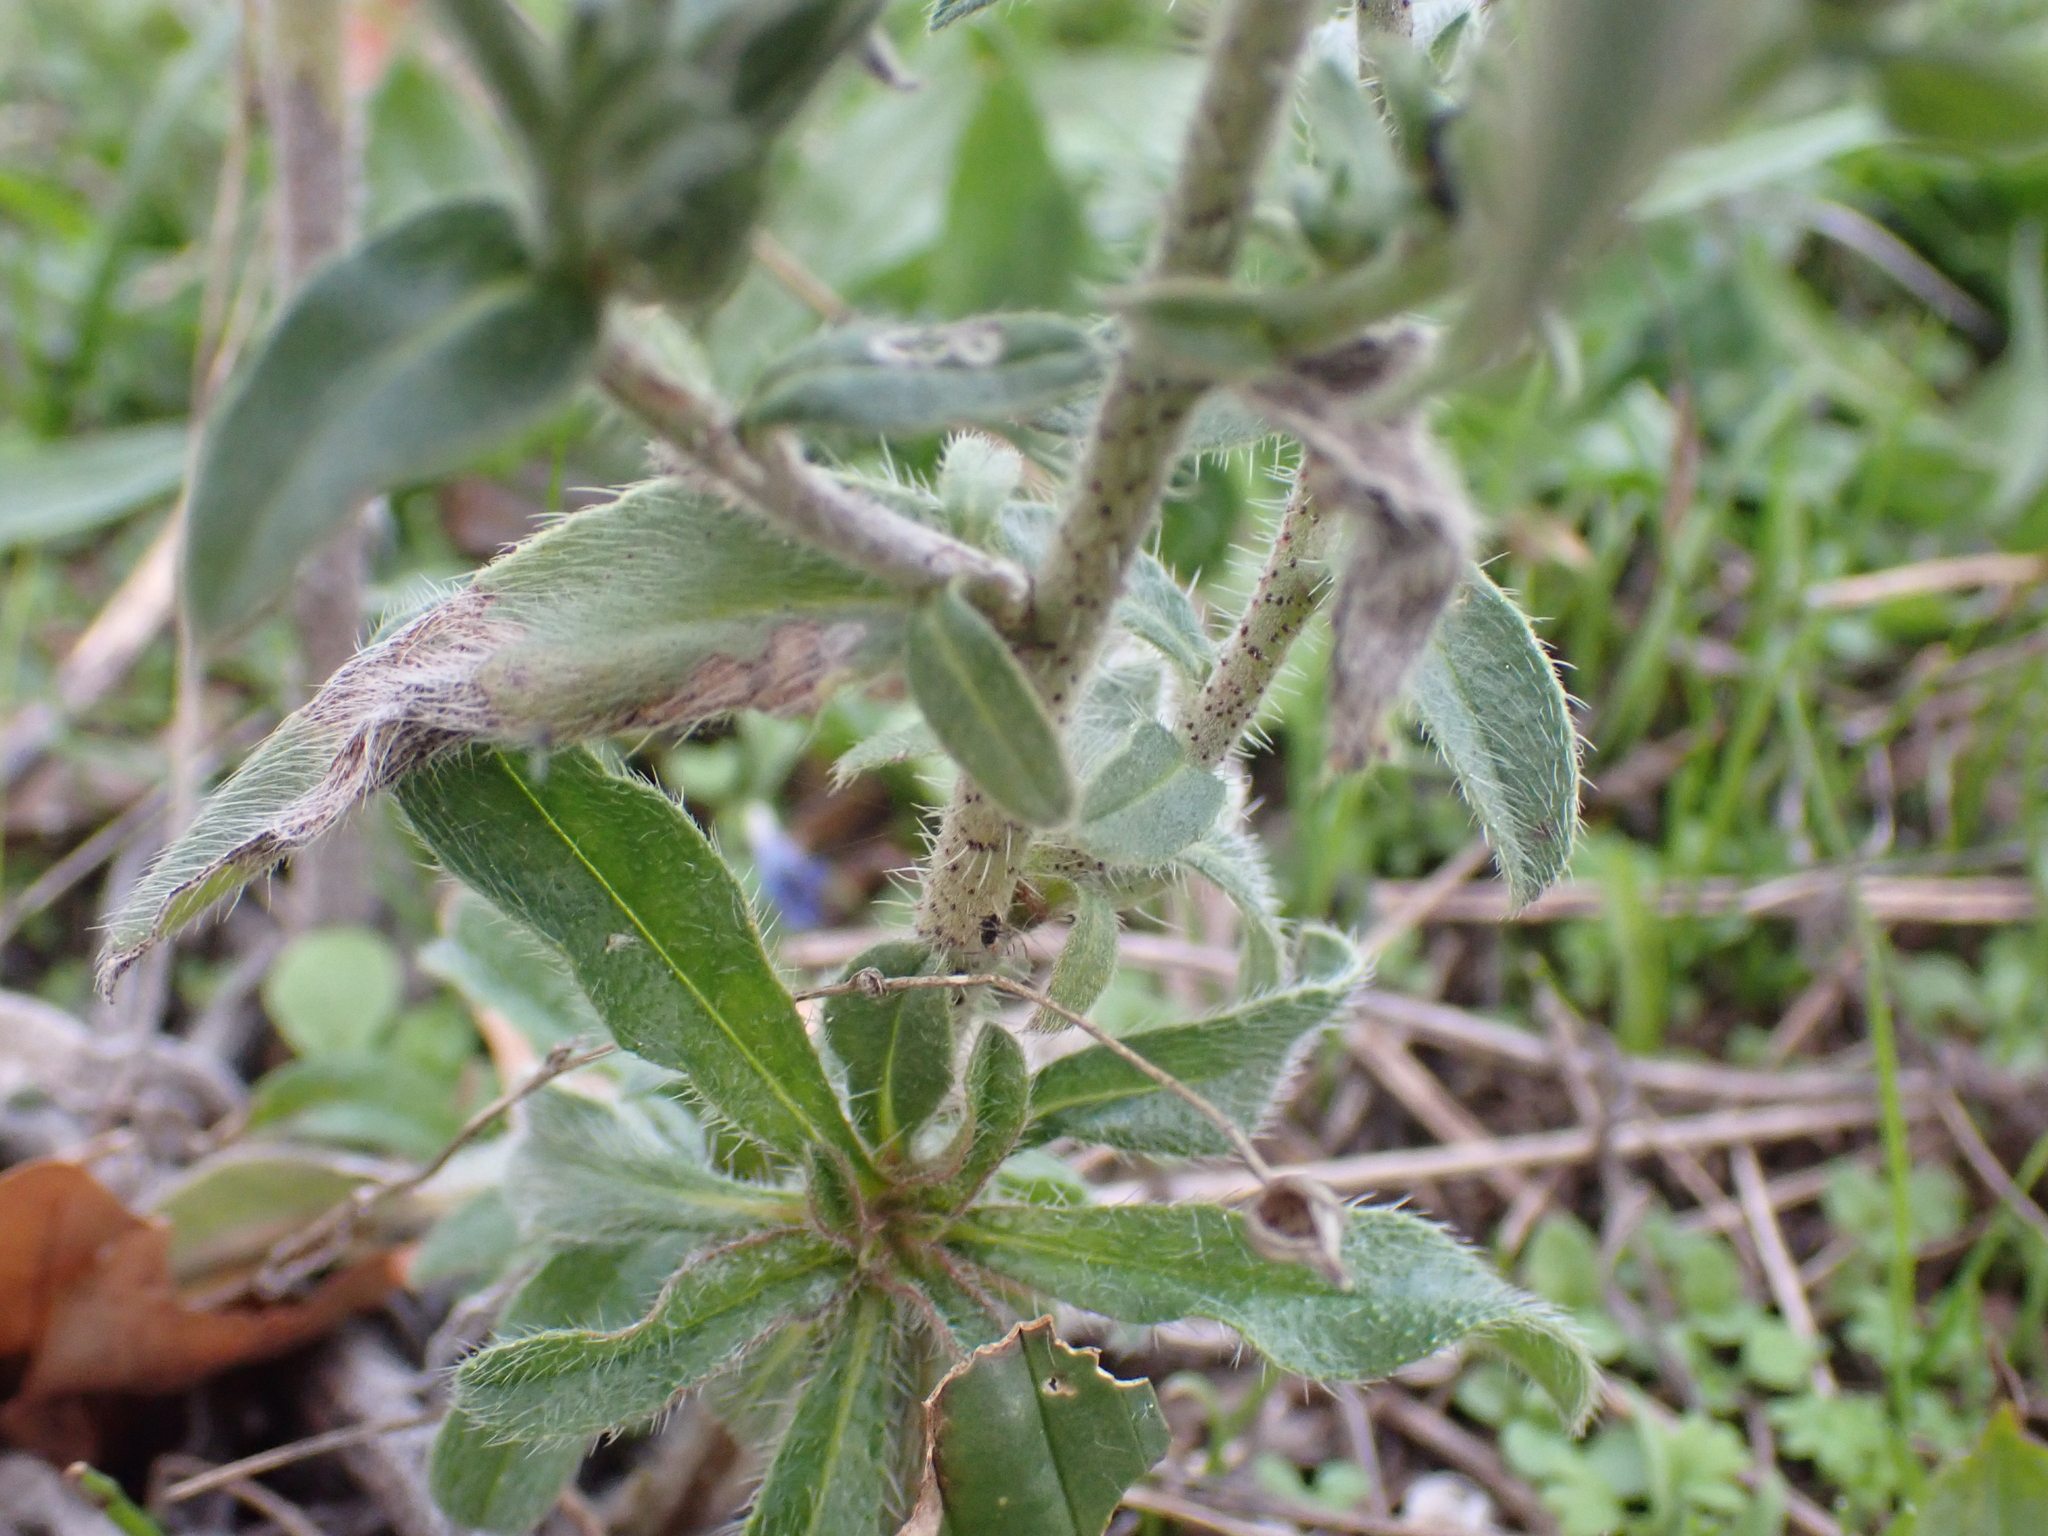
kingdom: Plantae
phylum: Tracheophyta
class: Magnoliopsida
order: Boraginales
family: Boraginaceae
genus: Echium
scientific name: Echium vulgare
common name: Common viper's bugloss
